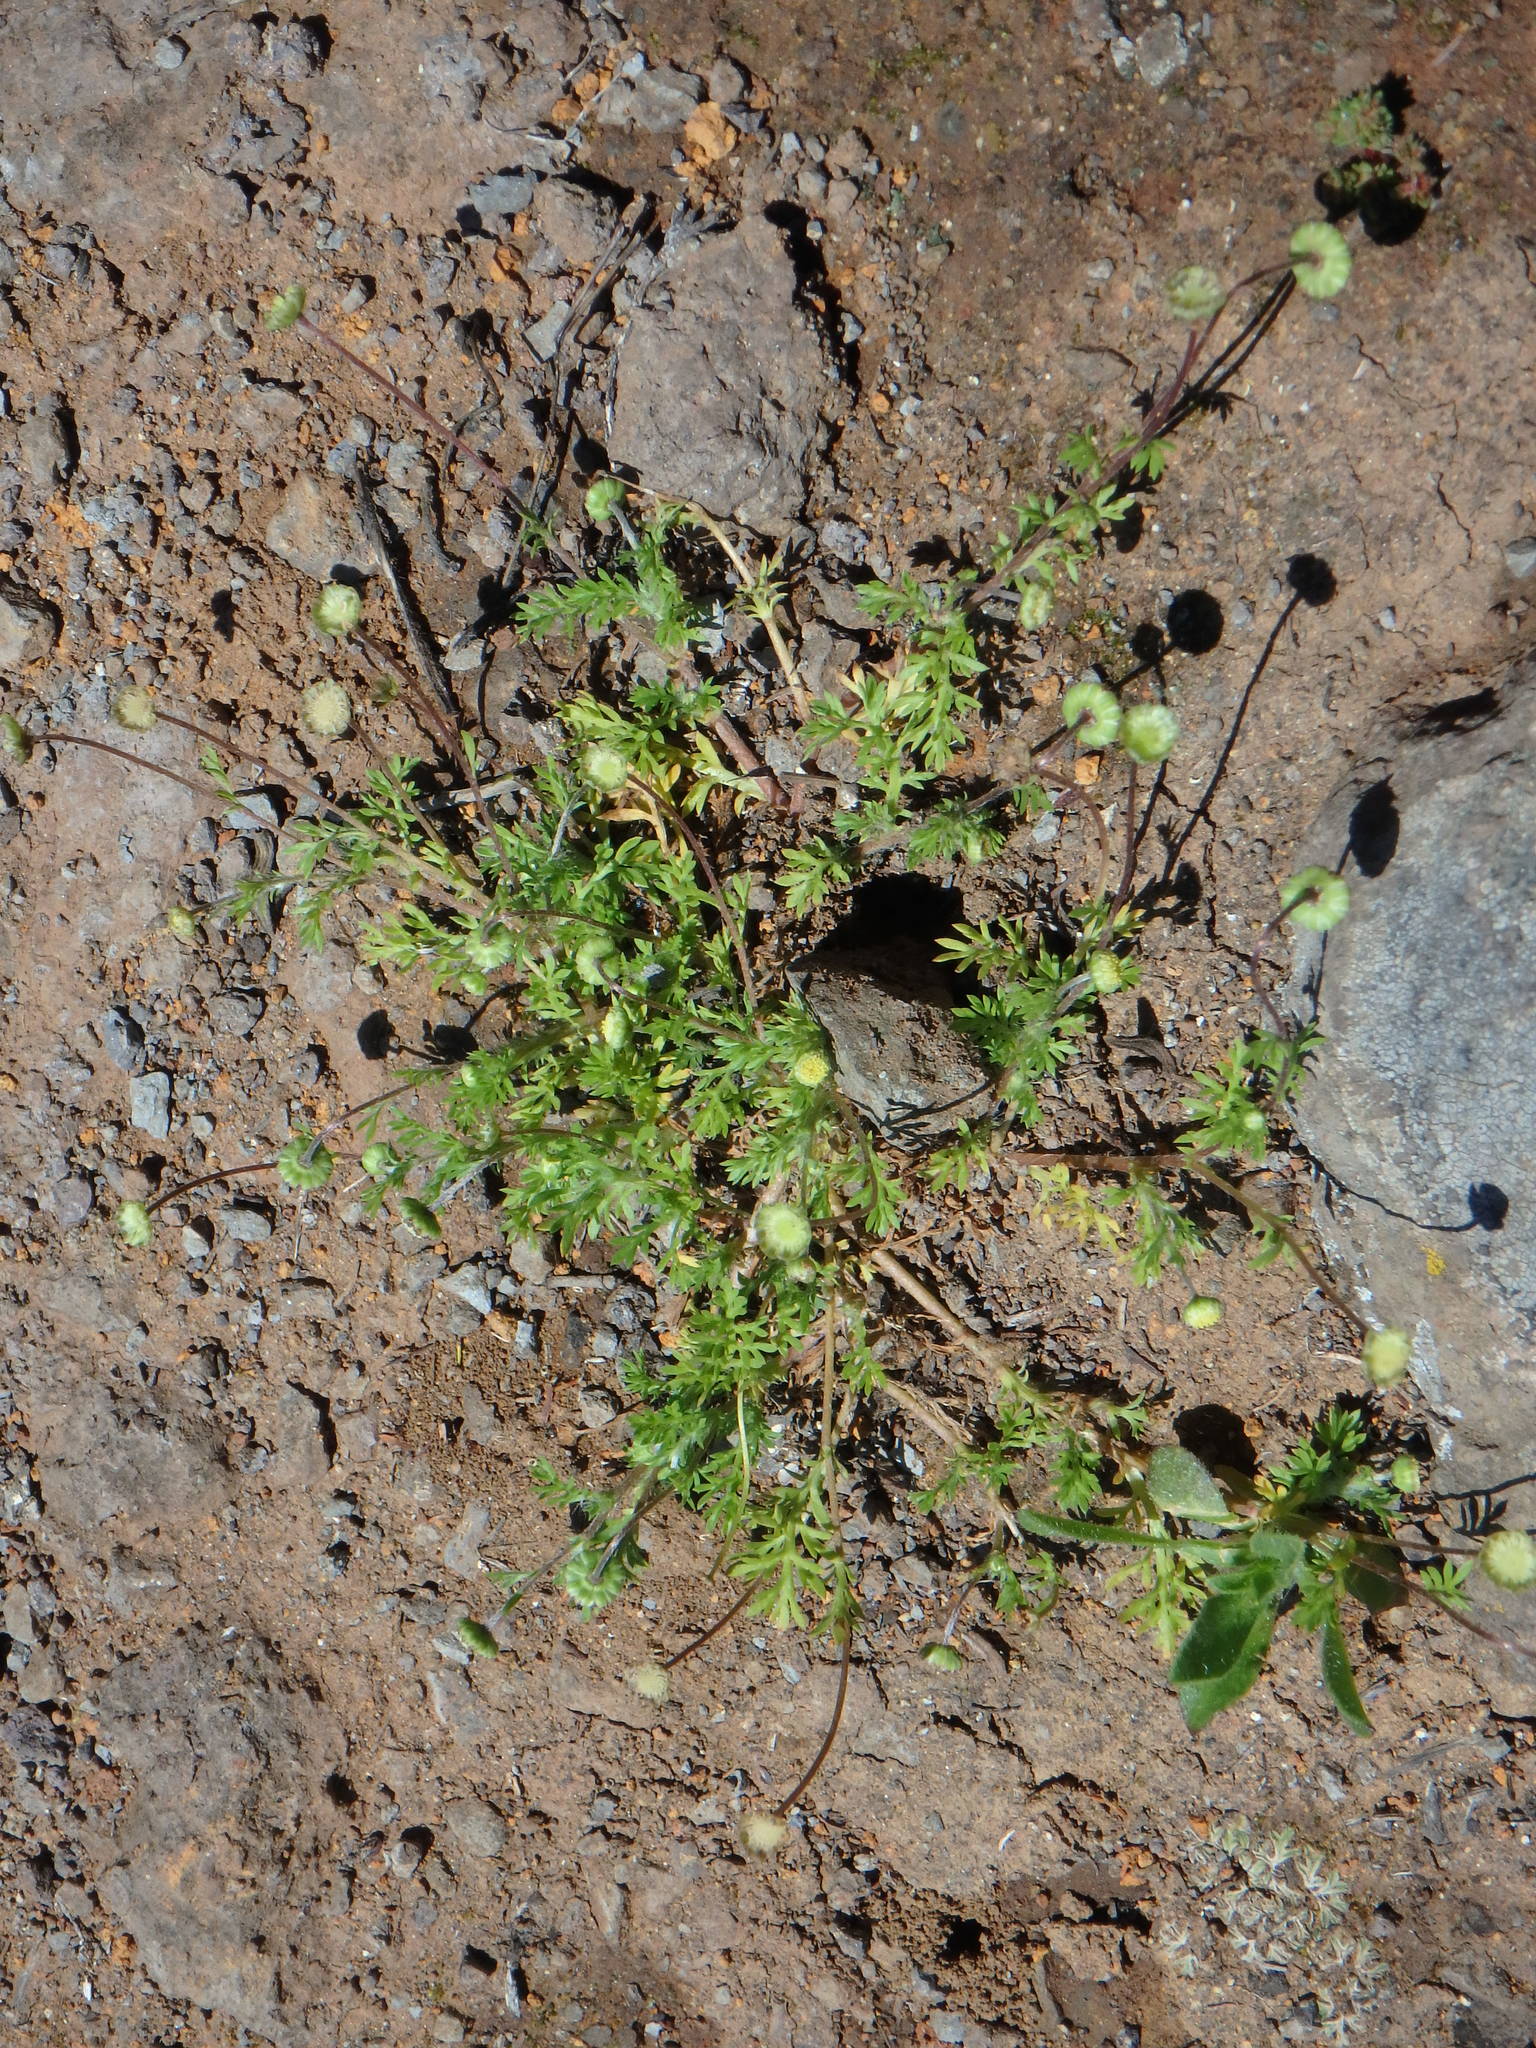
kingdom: Plantae
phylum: Tracheophyta
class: Magnoliopsida
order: Asterales
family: Asteraceae
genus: Cotula
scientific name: Cotula australis
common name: Australian waterbuttons
